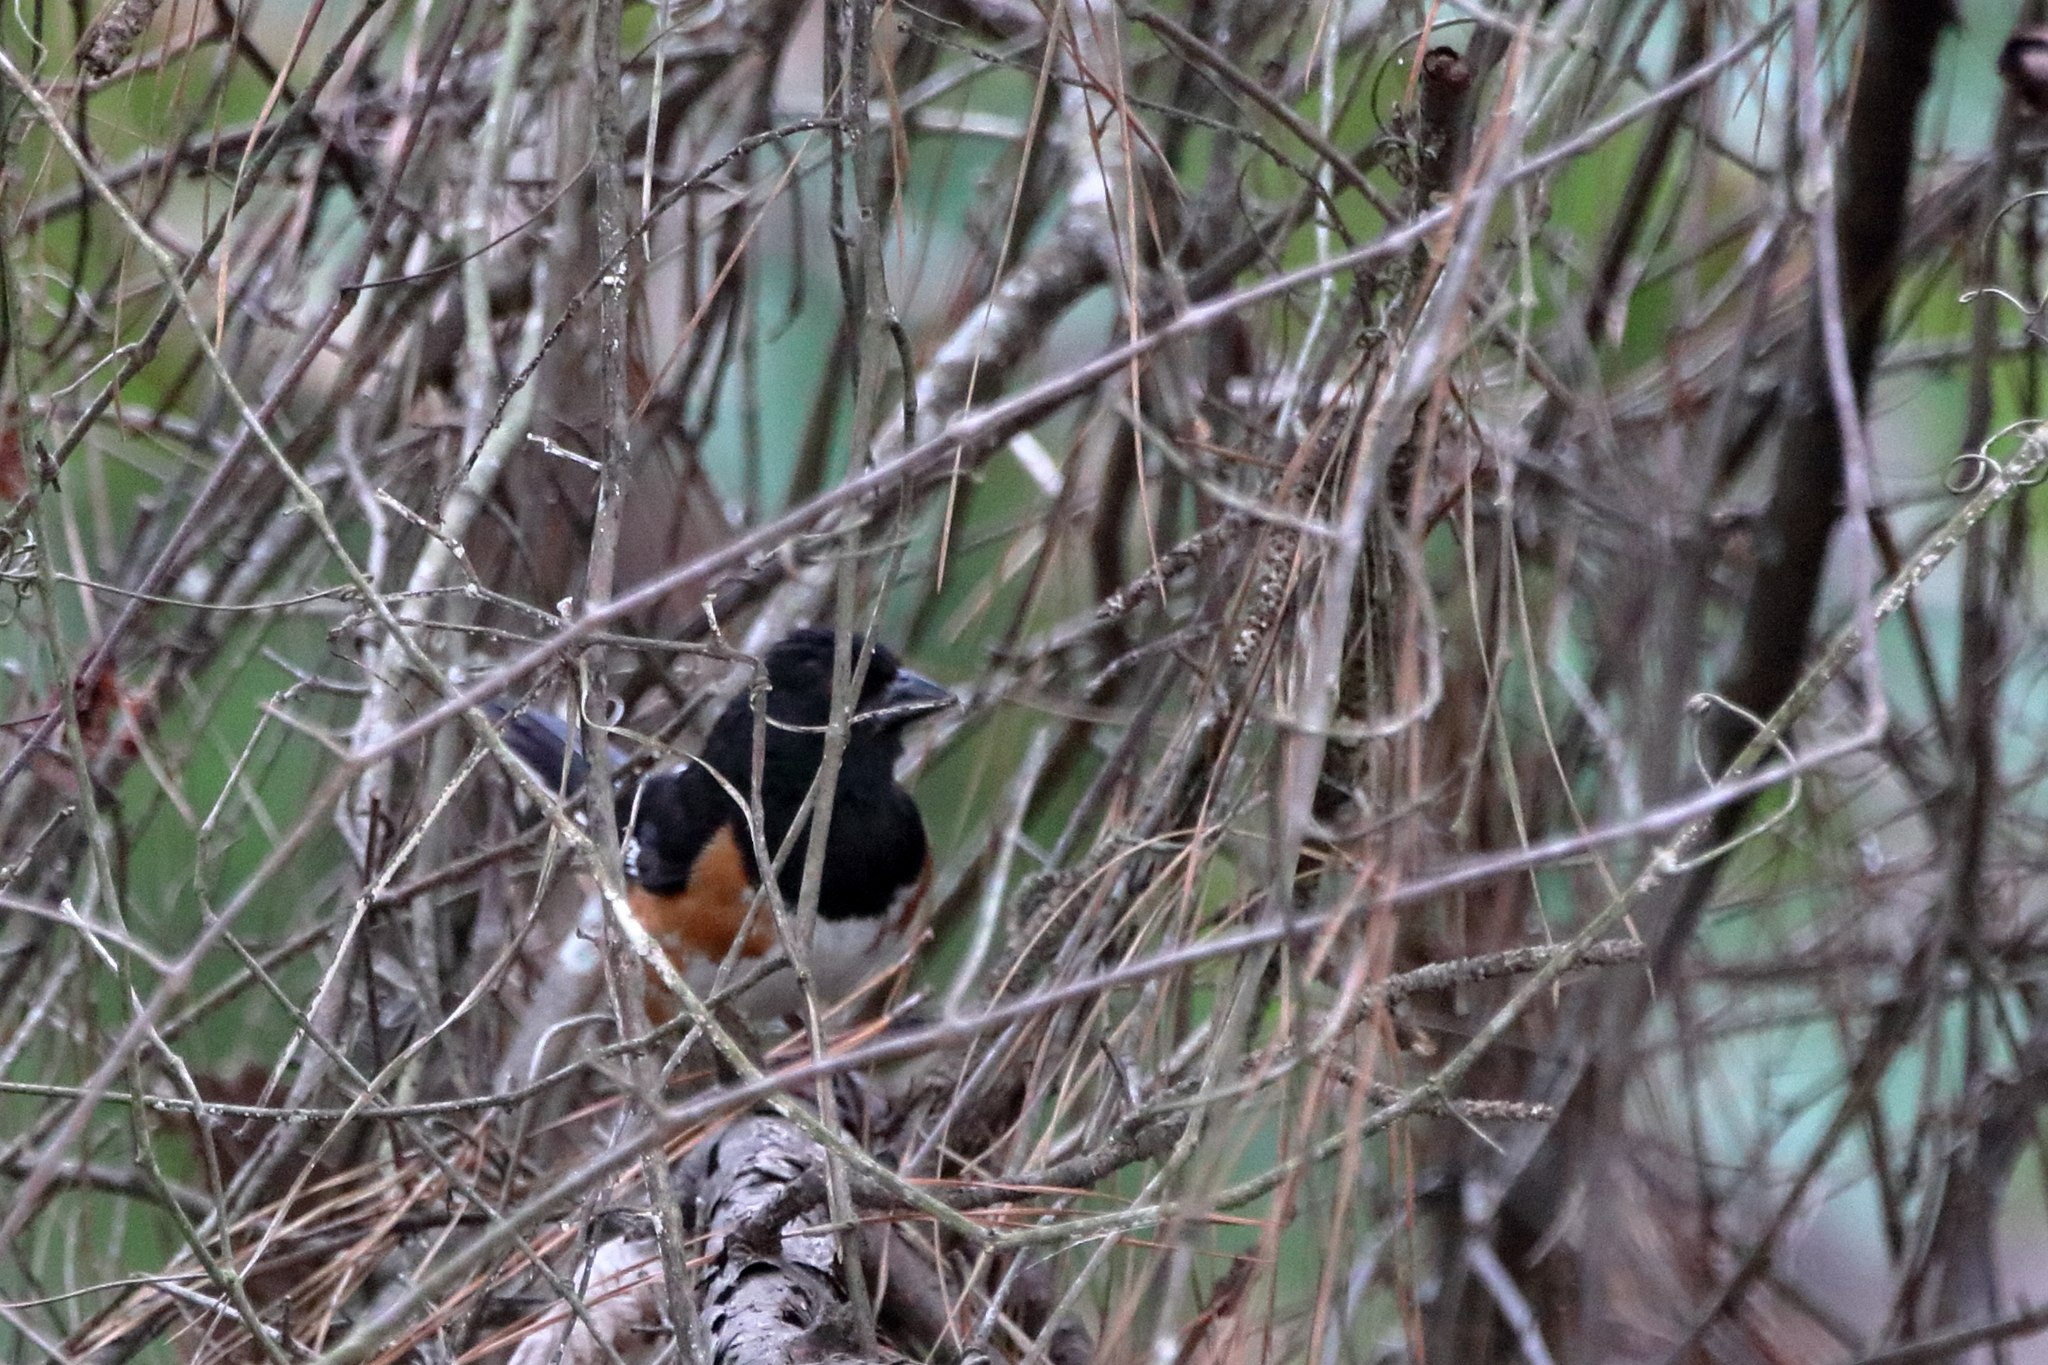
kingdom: Animalia
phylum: Chordata
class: Aves
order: Passeriformes
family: Passerellidae
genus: Pipilo
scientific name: Pipilo erythrophthalmus
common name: Eastern towhee
